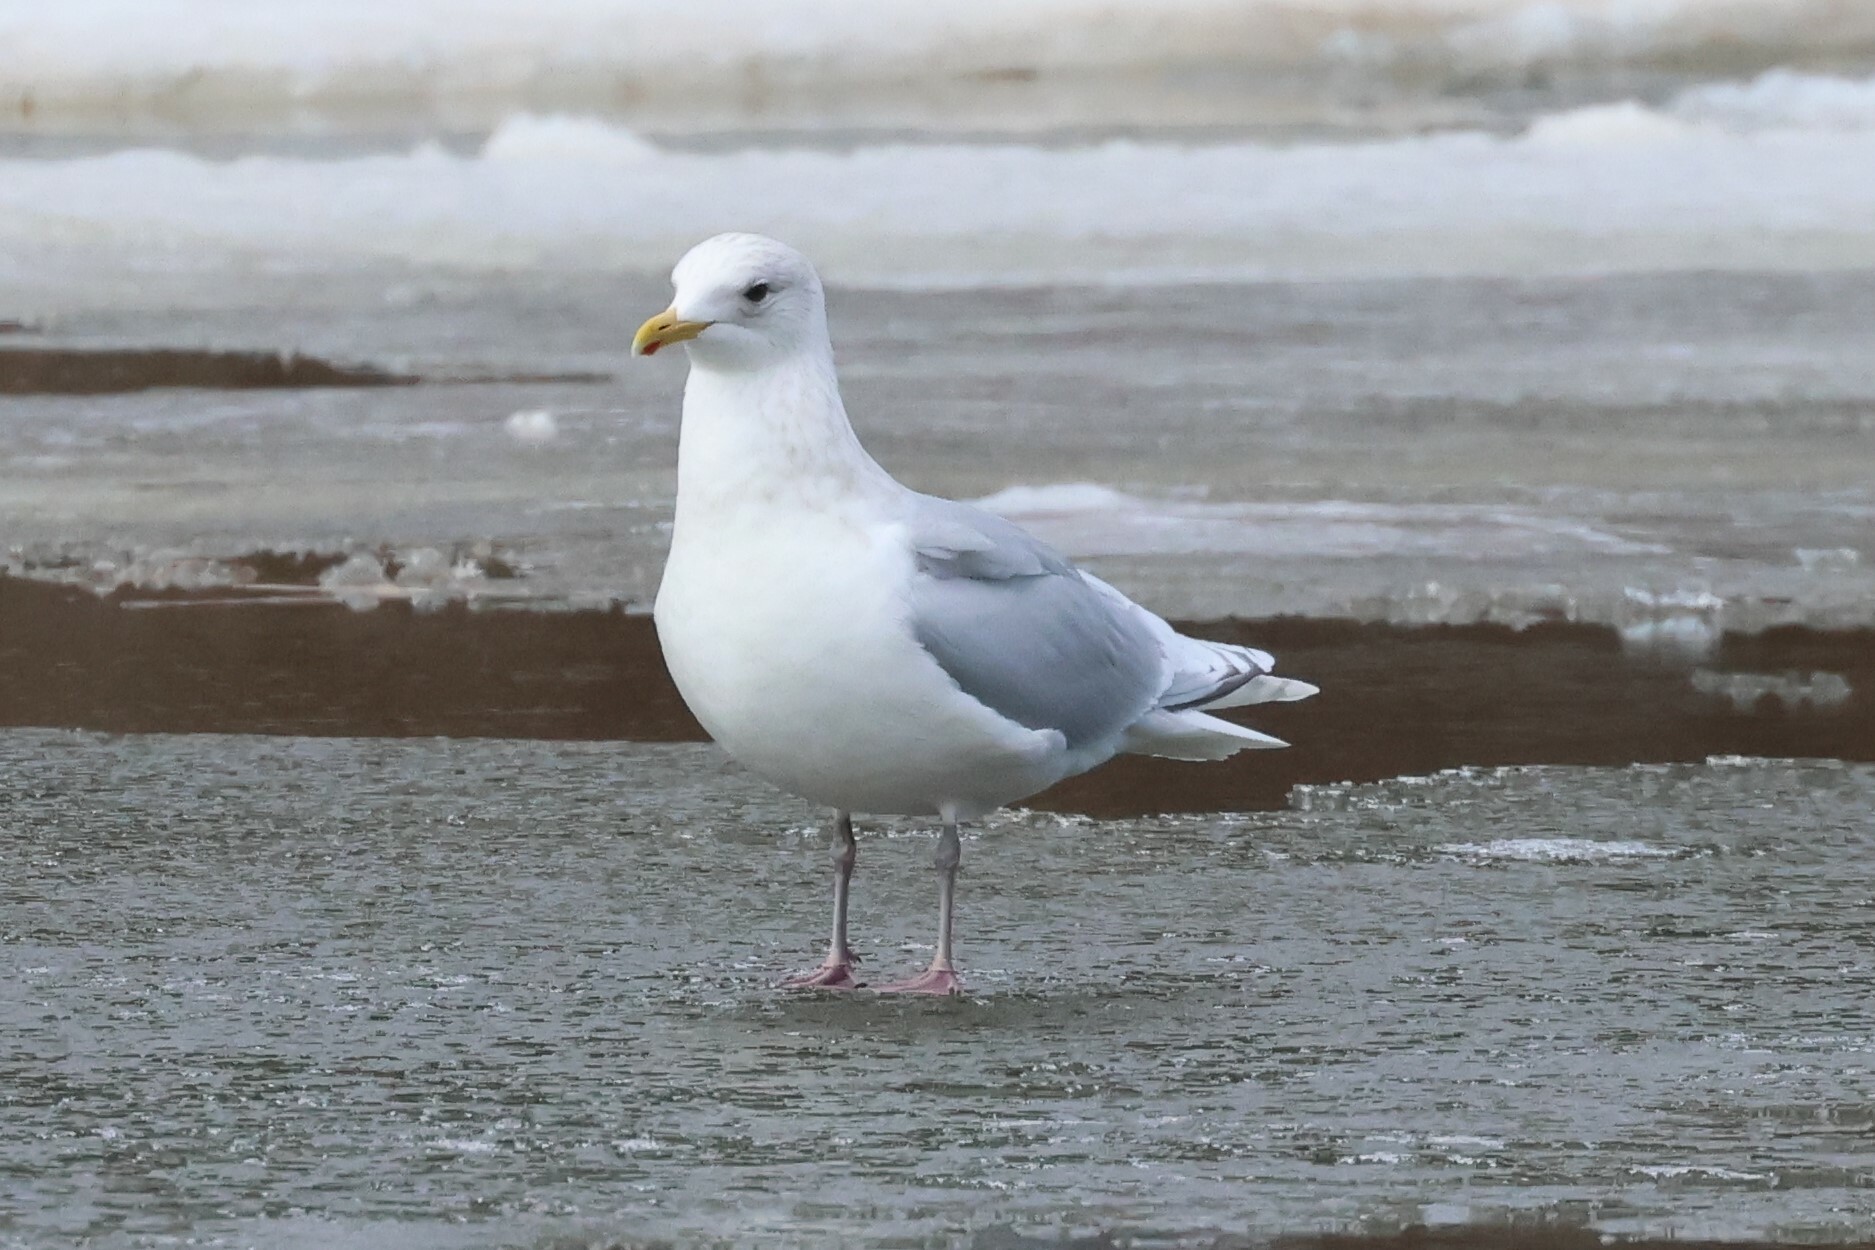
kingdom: Animalia
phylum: Chordata
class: Aves
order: Charadriiformes
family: Laridae
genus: Larus
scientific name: Larus glaucoides
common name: Iceland gull
